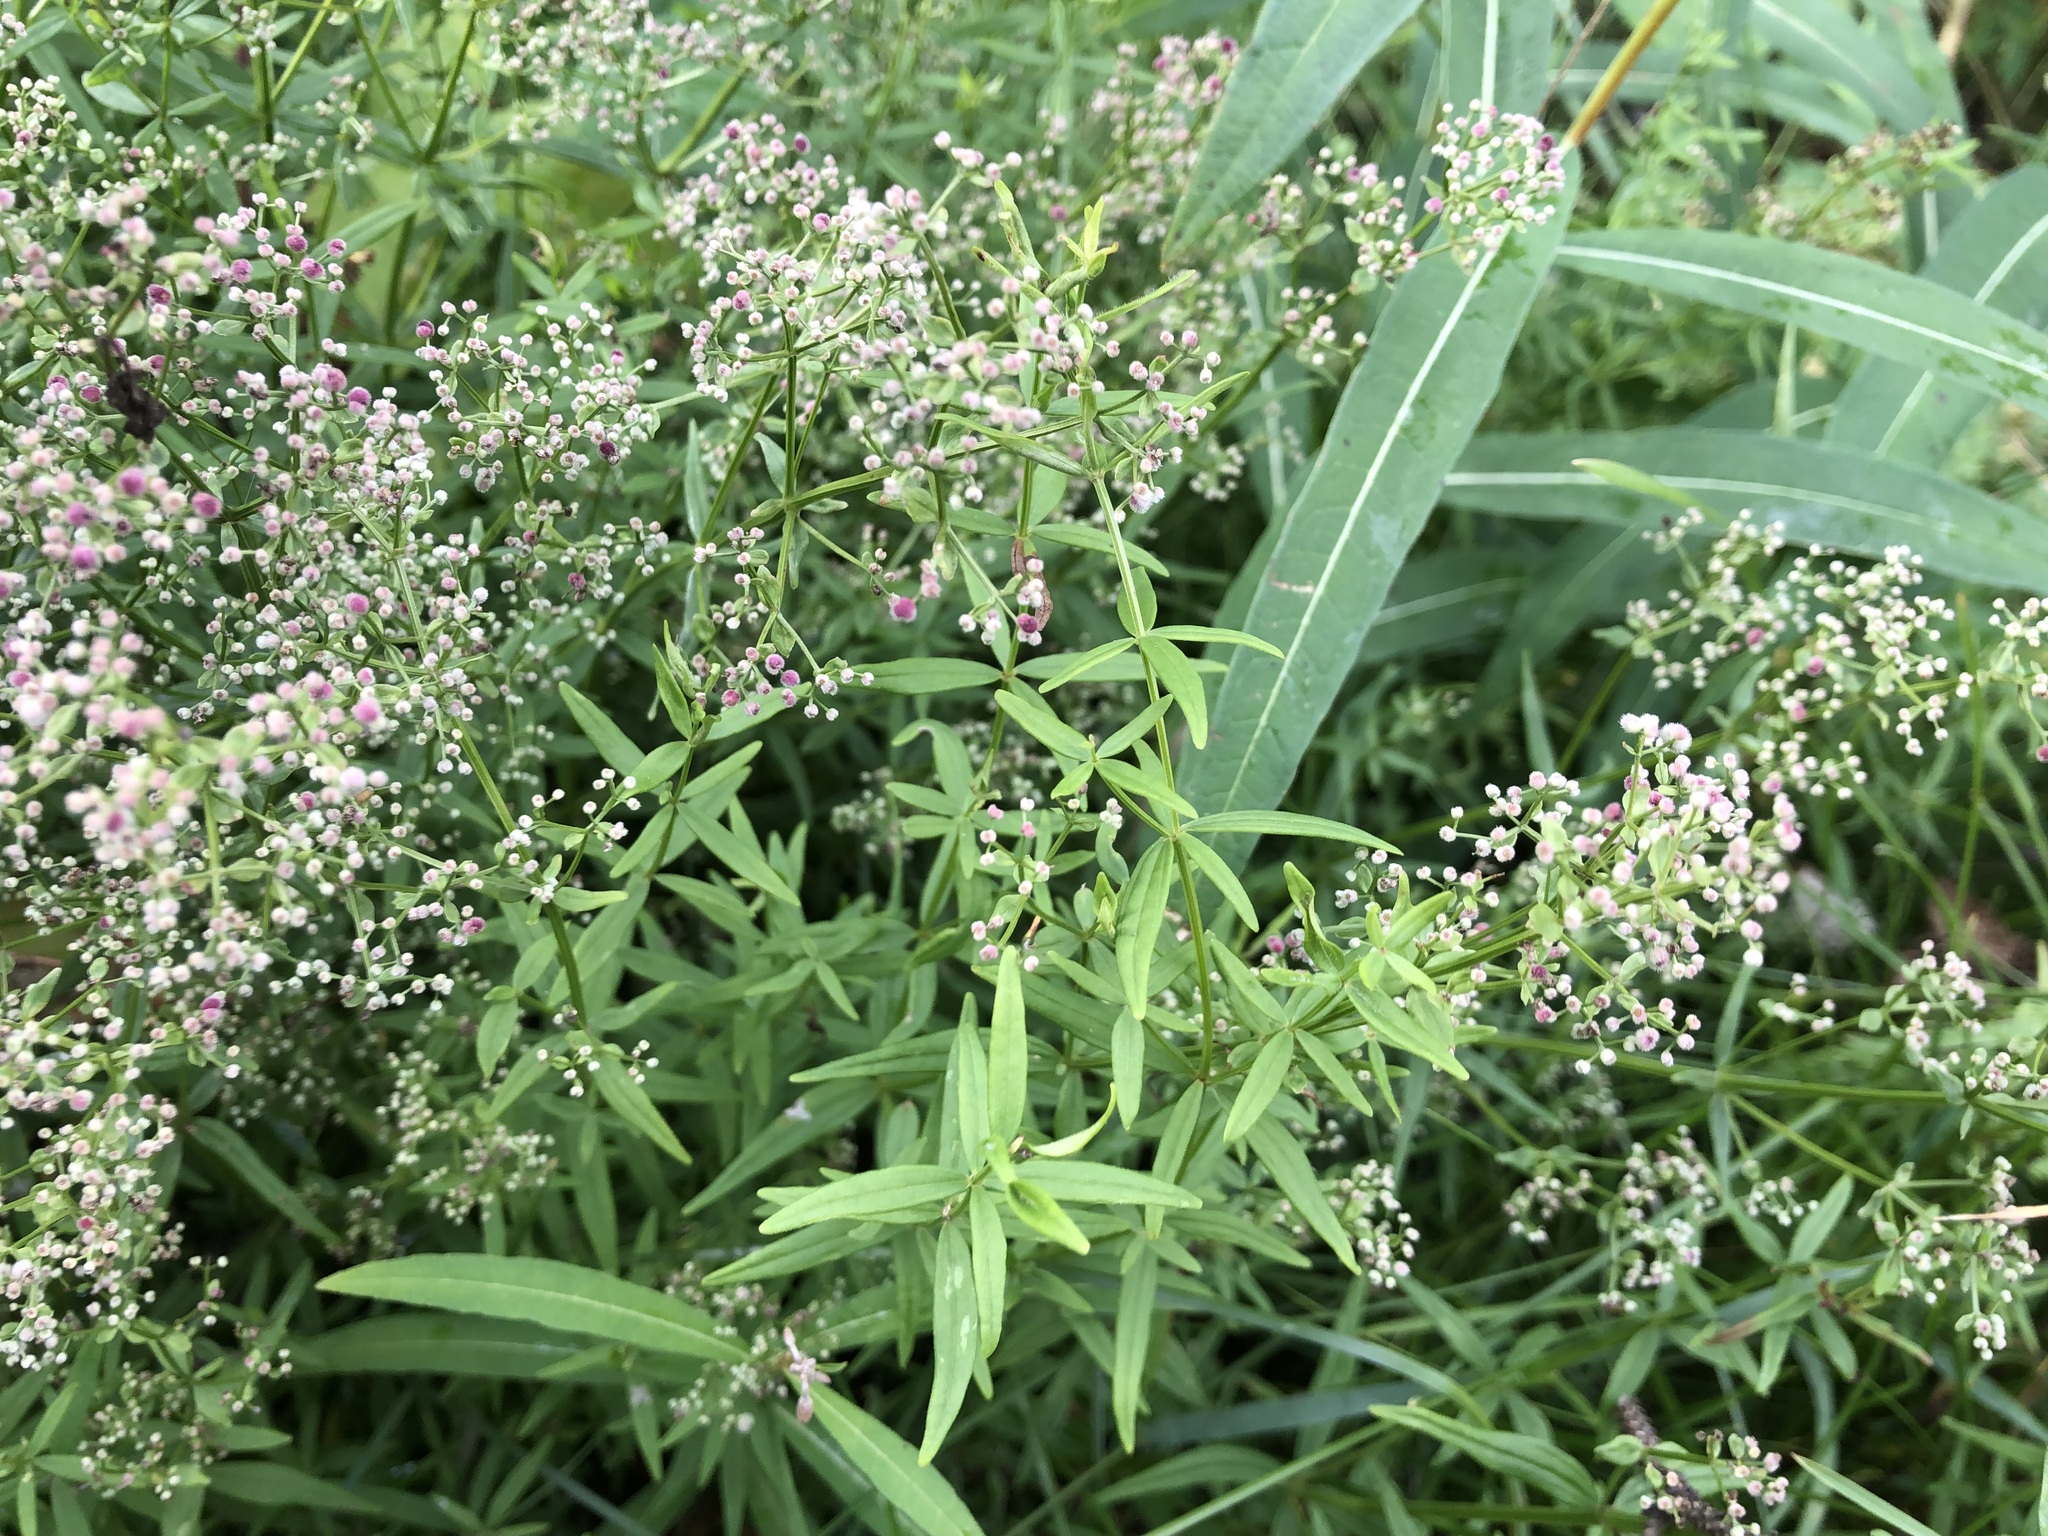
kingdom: Plantae
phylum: Tracheophyta
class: Magnoliopsida
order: Gentianales
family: Rubiaceae
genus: Galium
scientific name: Galium boreale
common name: Northern bedstraw
